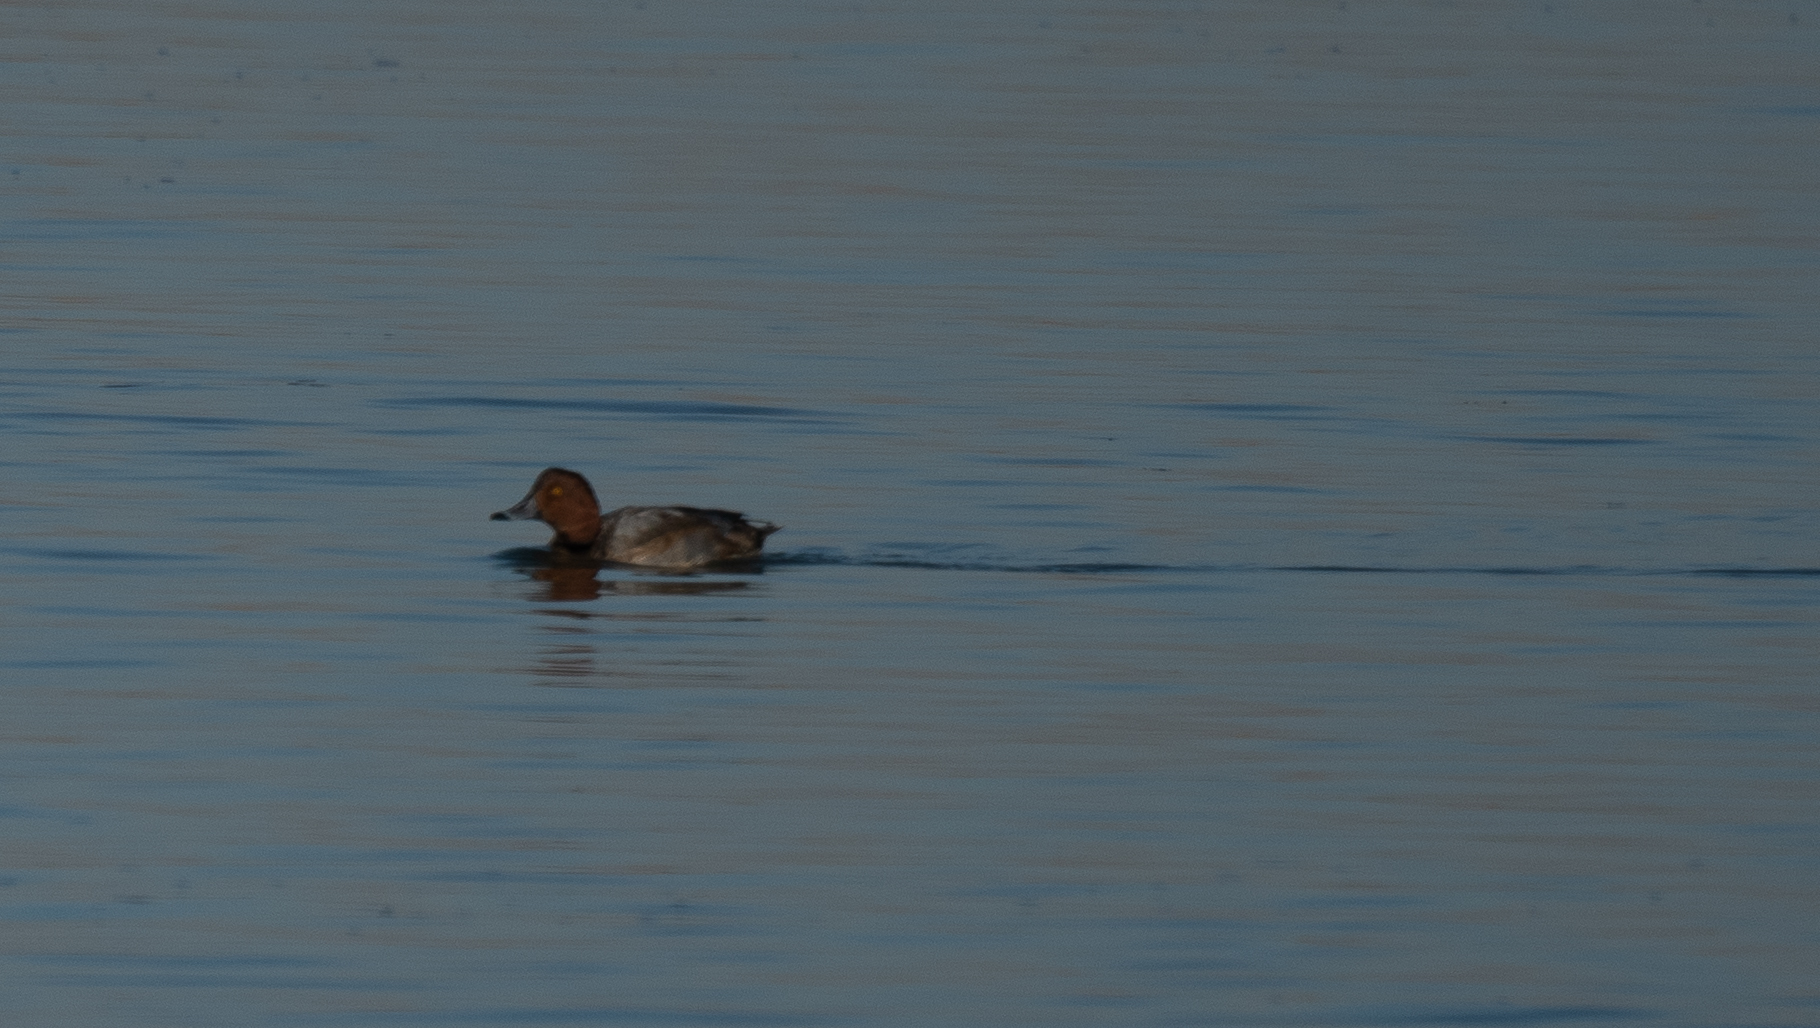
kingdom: Animalia
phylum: Chordata
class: Aves
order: Anseriformes
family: Anatidae
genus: Aythya
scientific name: Aythya americana
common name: Redhead
